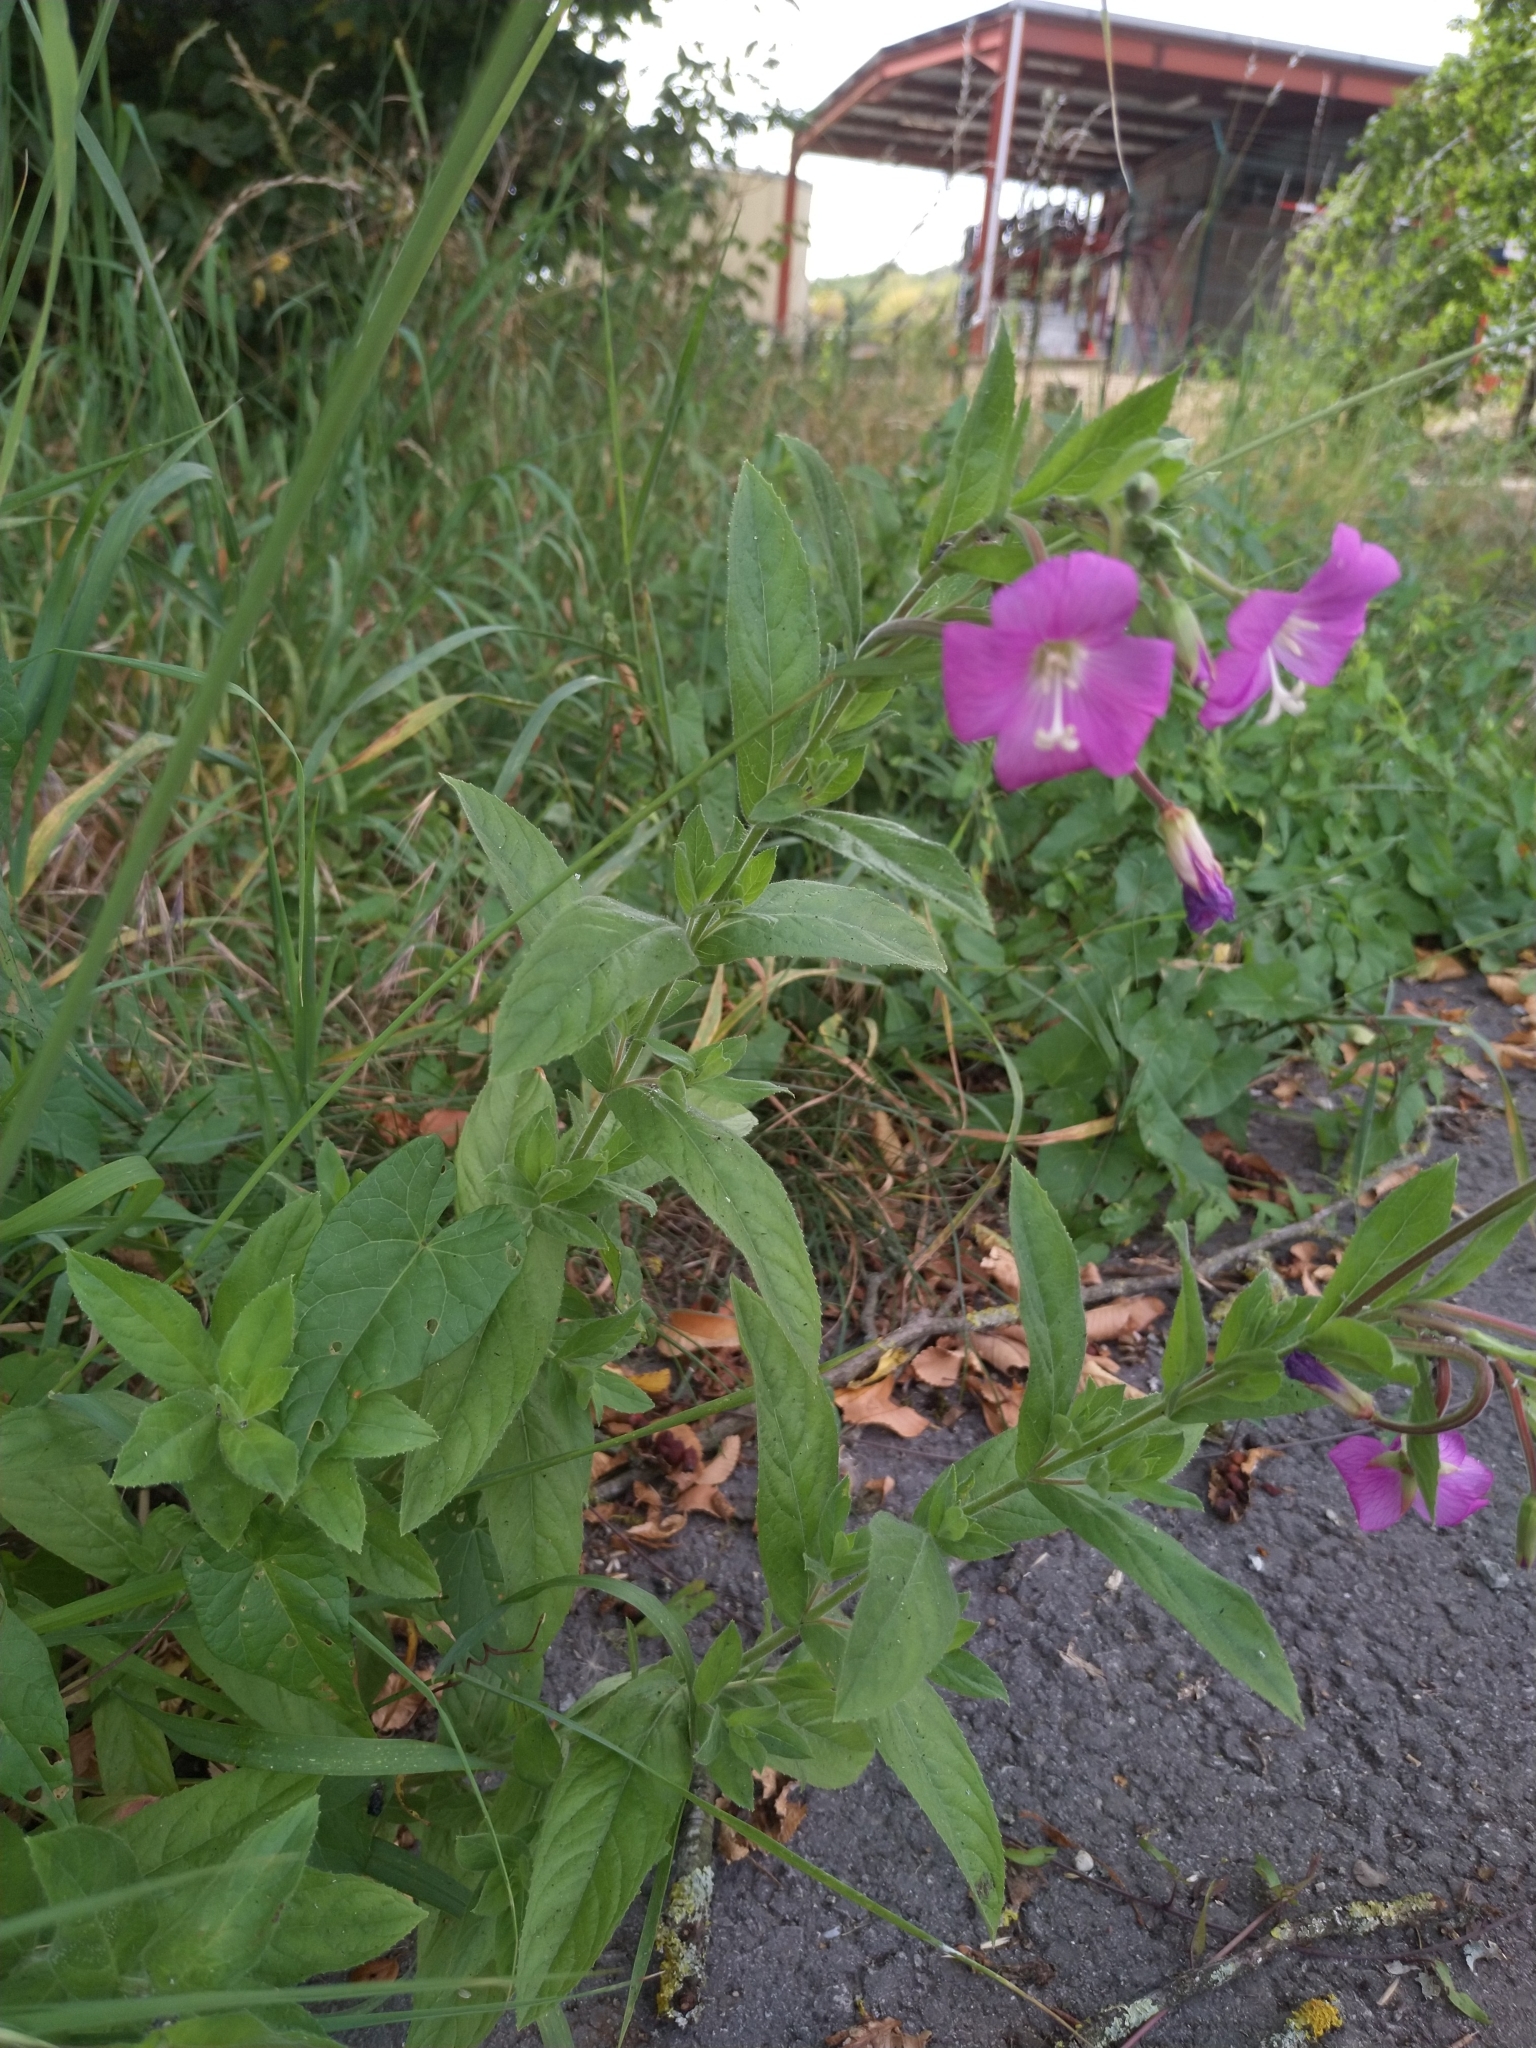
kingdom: Plantae
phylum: Tracheophyta
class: Magnoliopsida
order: Myrtales
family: Onagraceae
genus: Epilobium
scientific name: Epilobium hirsutum
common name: Great willowherb
